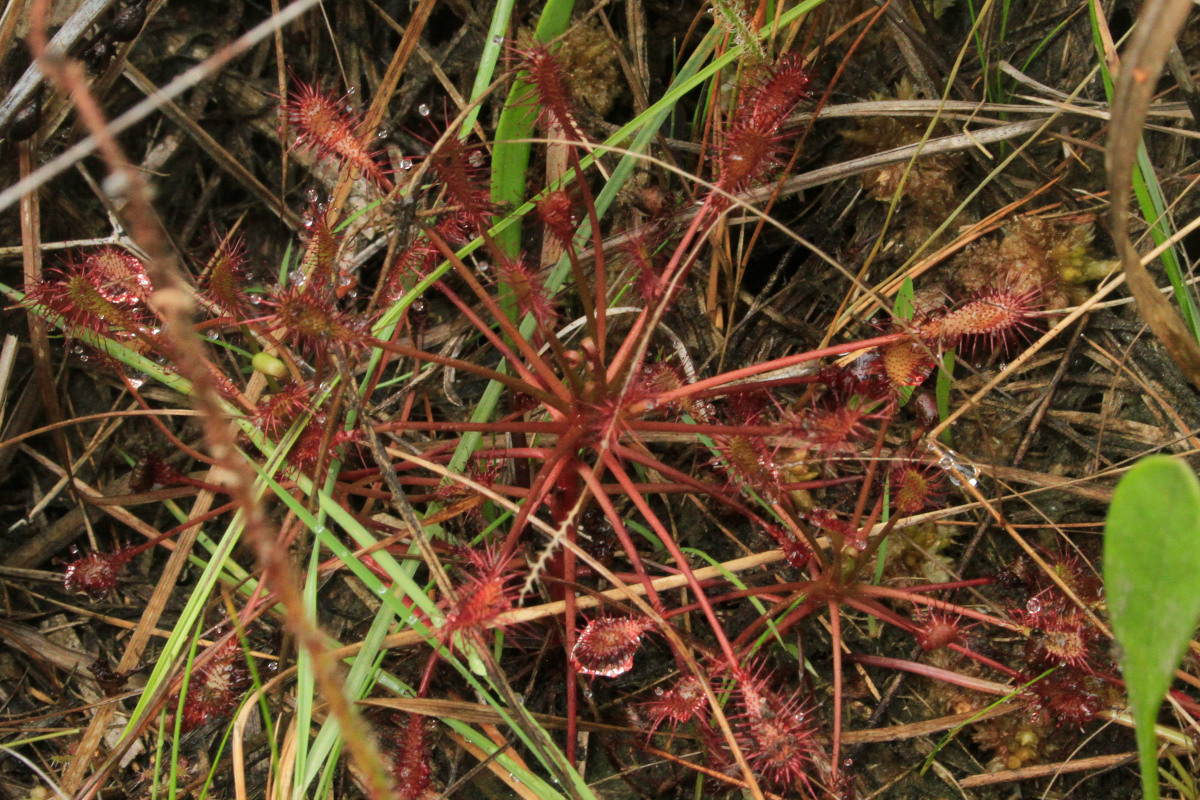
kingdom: Plantae
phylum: Tracheophyta
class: Magnoliopsida
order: Caryophyllales
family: Droseraceae
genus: Drosera
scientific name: Drosera intermedia
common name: Oblong-leaved sundew
